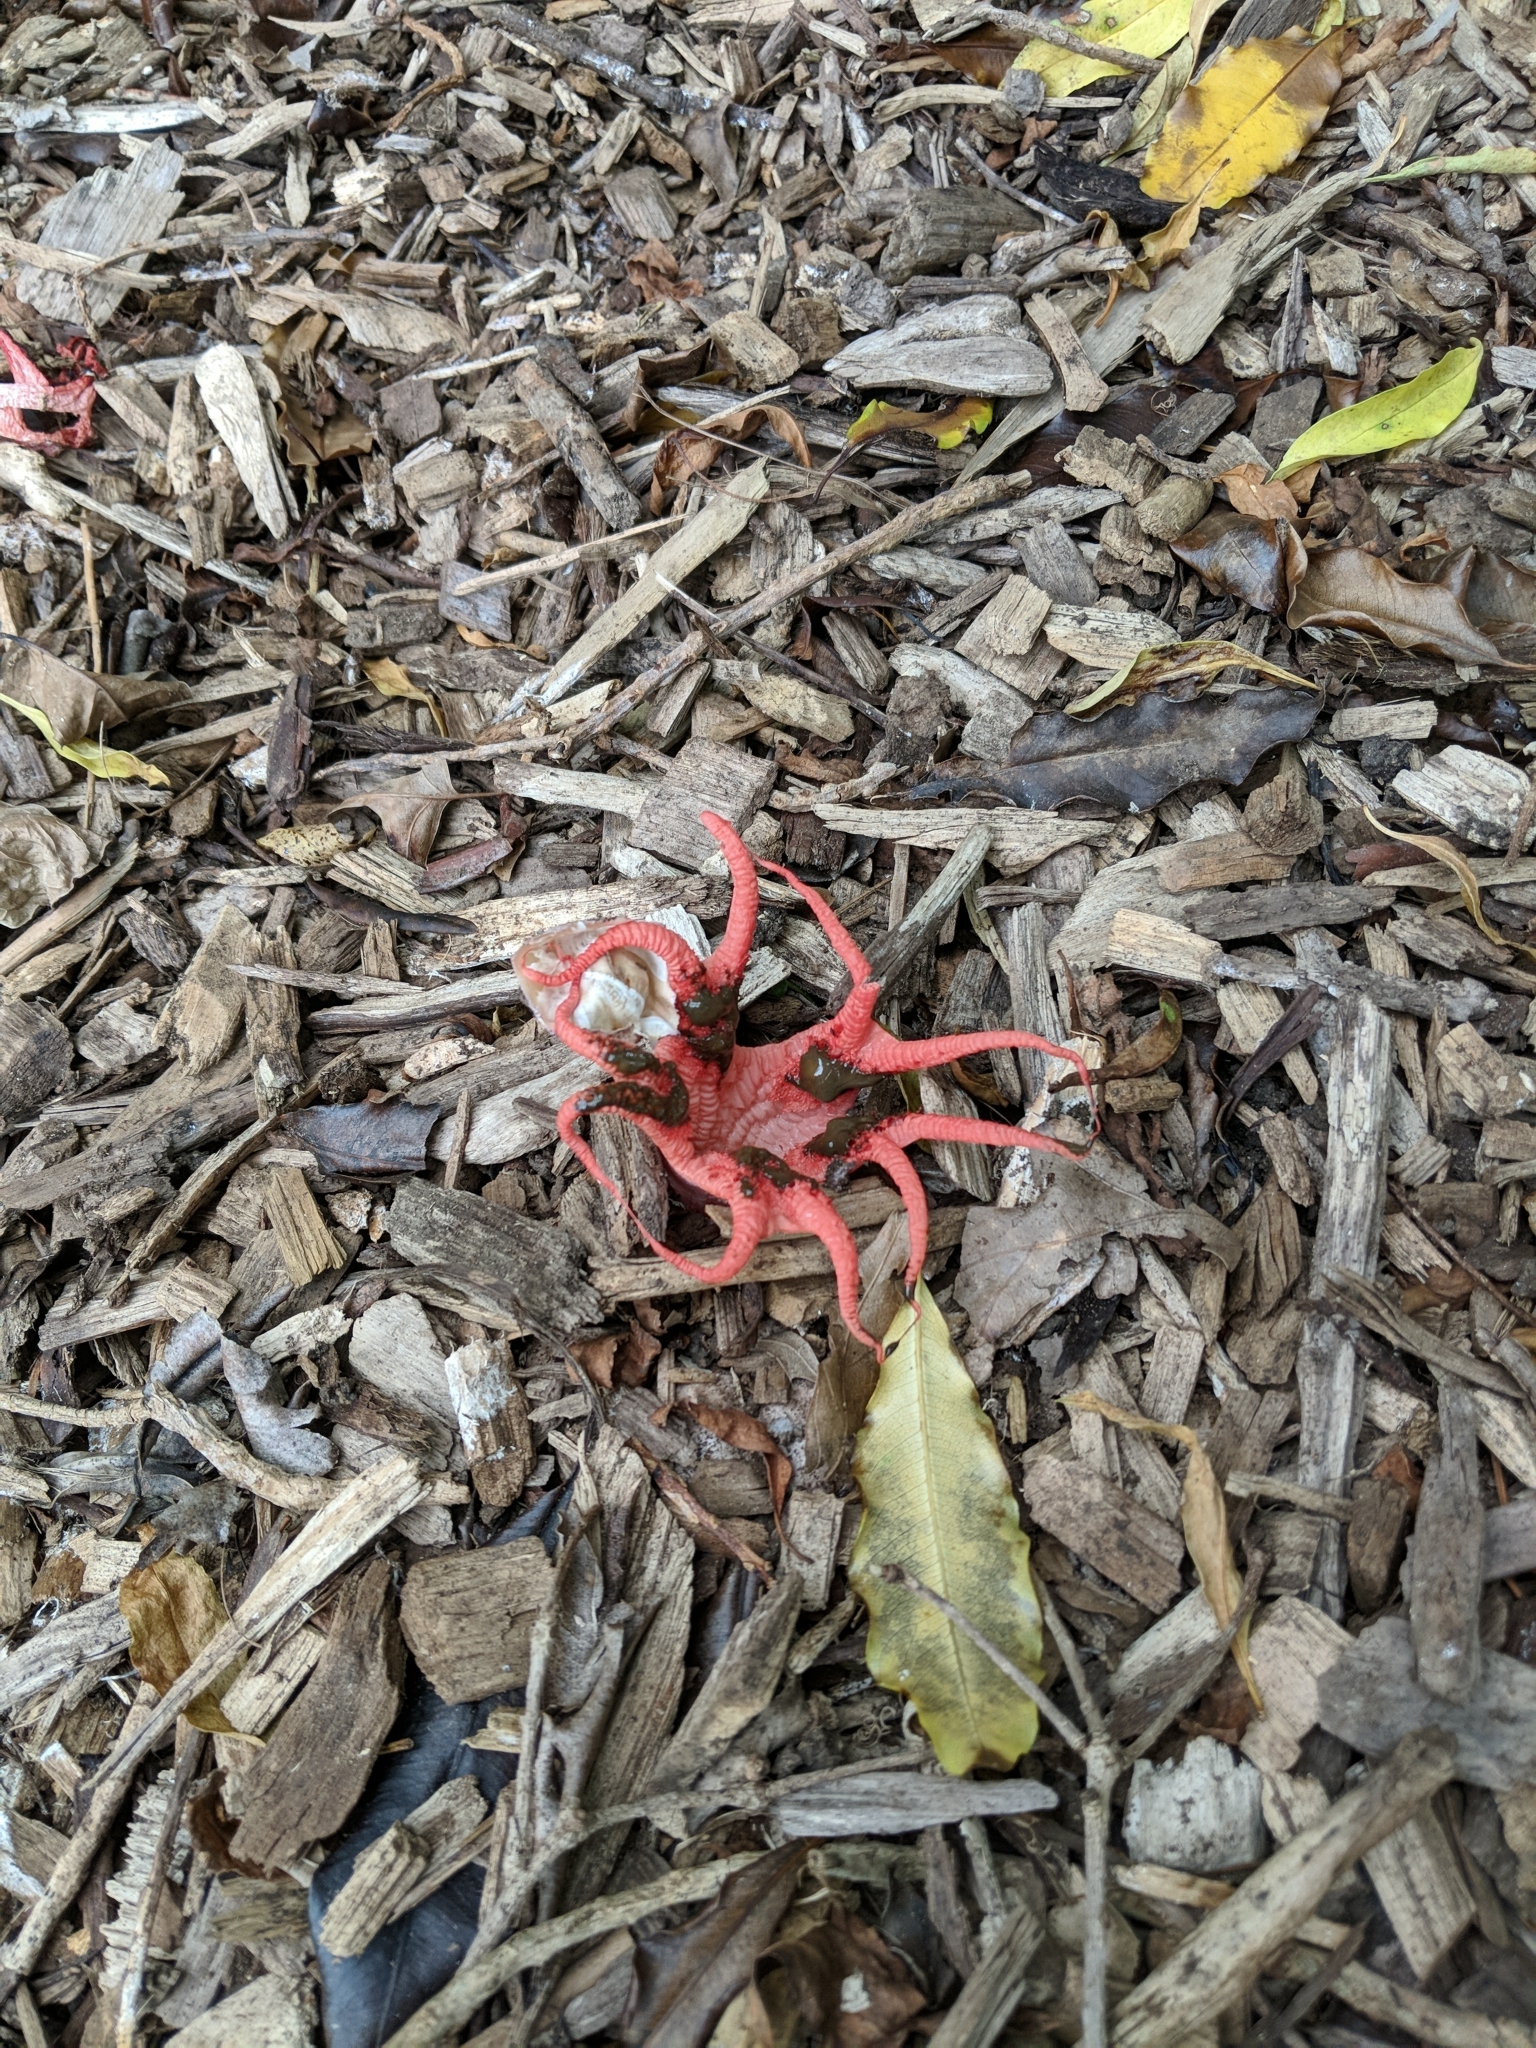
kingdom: Fungi
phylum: Basidiomycota
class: Agaricomycetes
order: Phallales
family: Phallaceae
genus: Aseroe
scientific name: Aseroe rubra
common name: Starfish fungus
